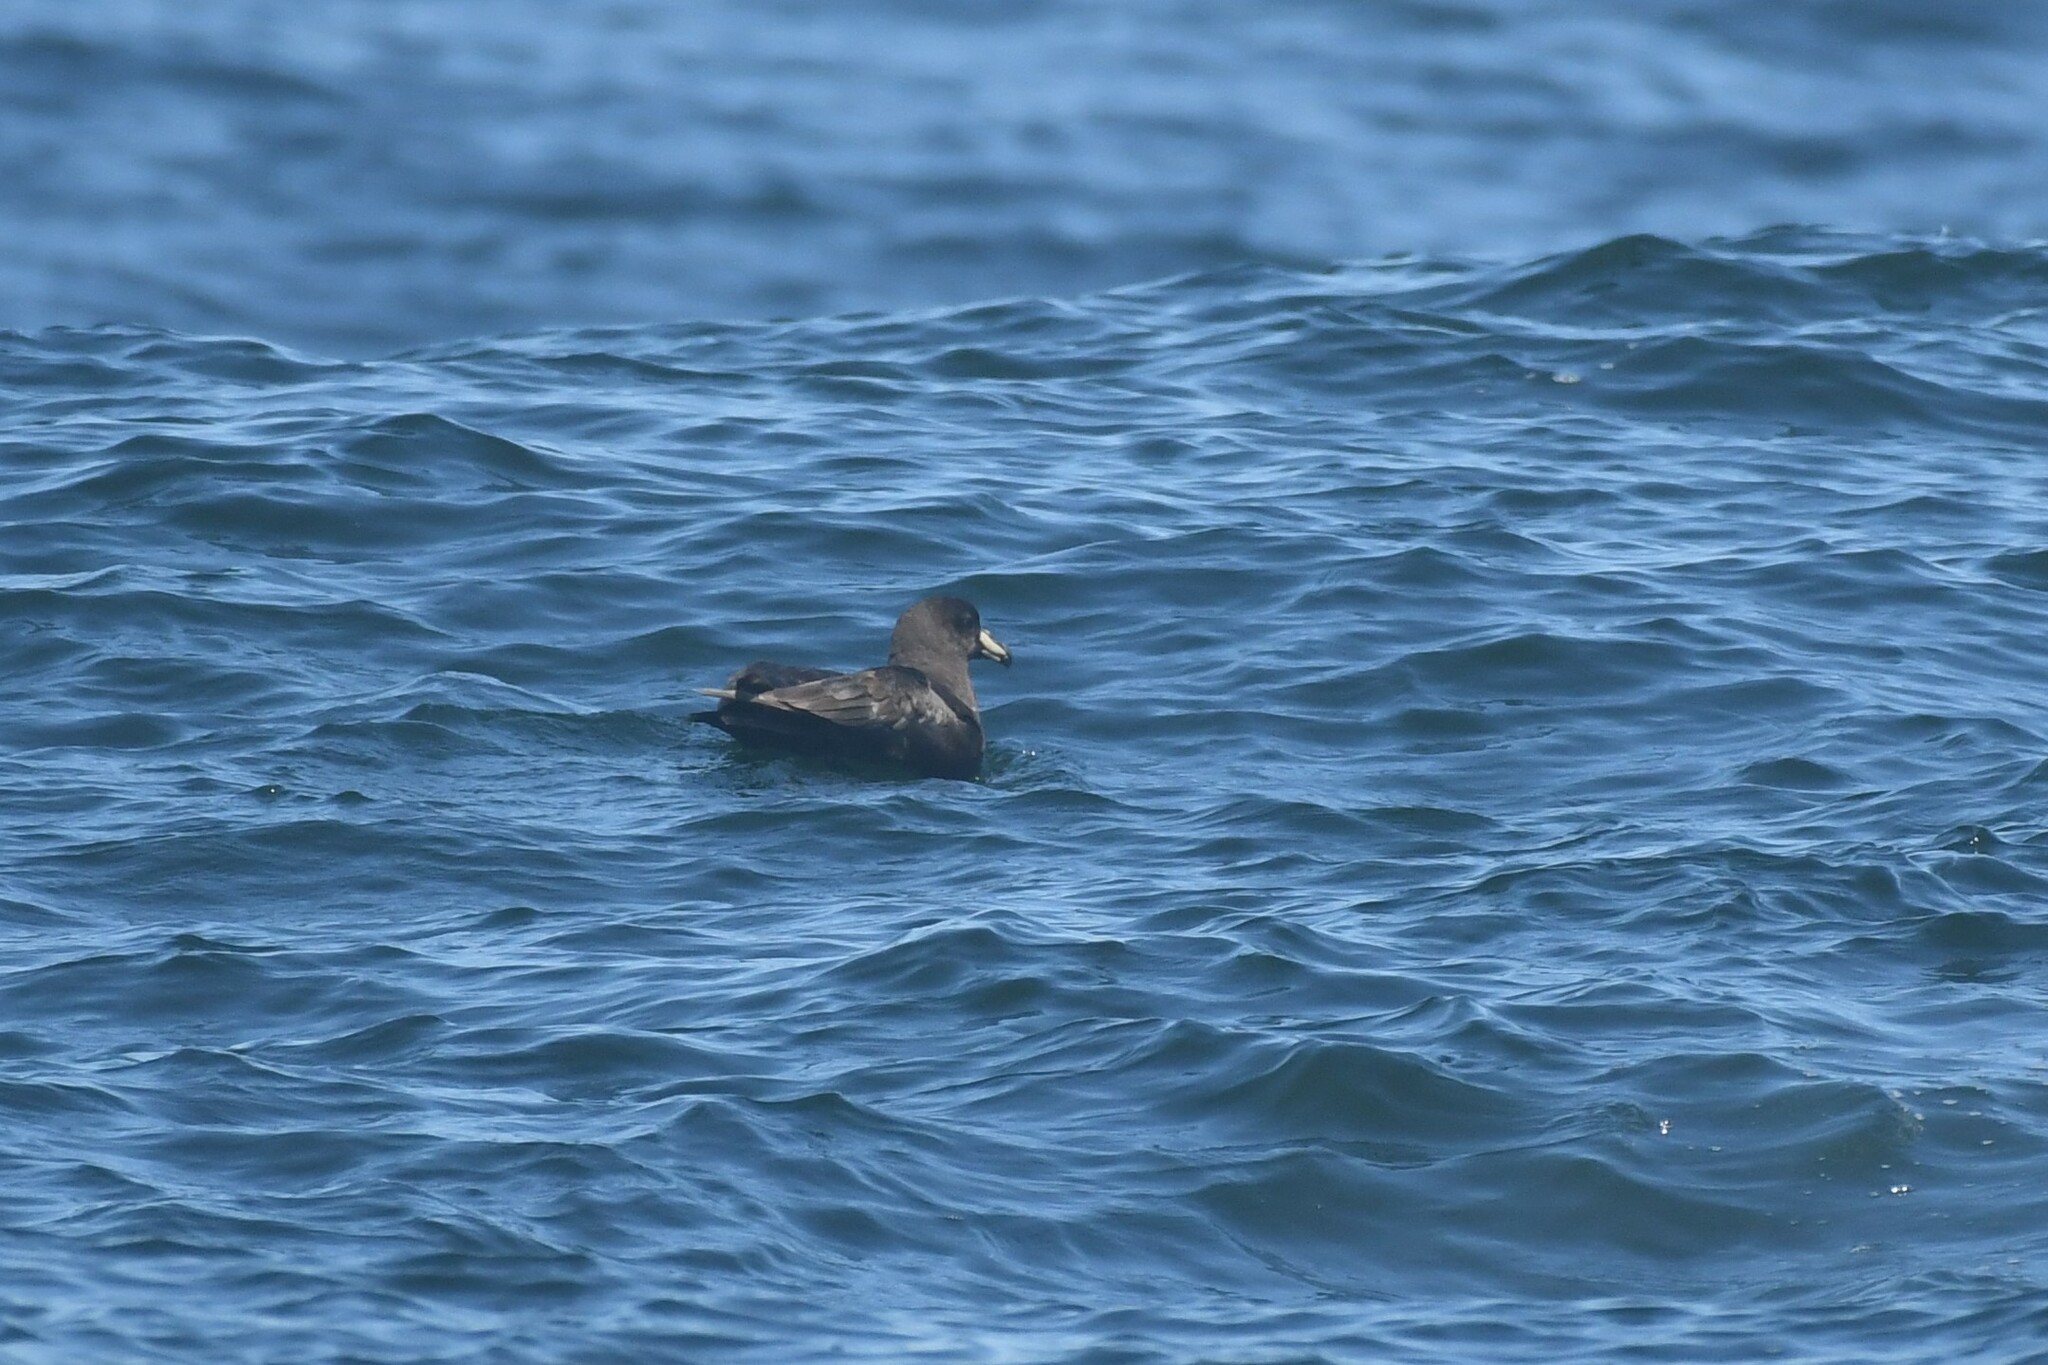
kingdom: Animalia
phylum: Chordata
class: Aves
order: Procellariiformes
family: Procellariidae
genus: Procellaria
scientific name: Procellaria westlandica
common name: Westland petrel
